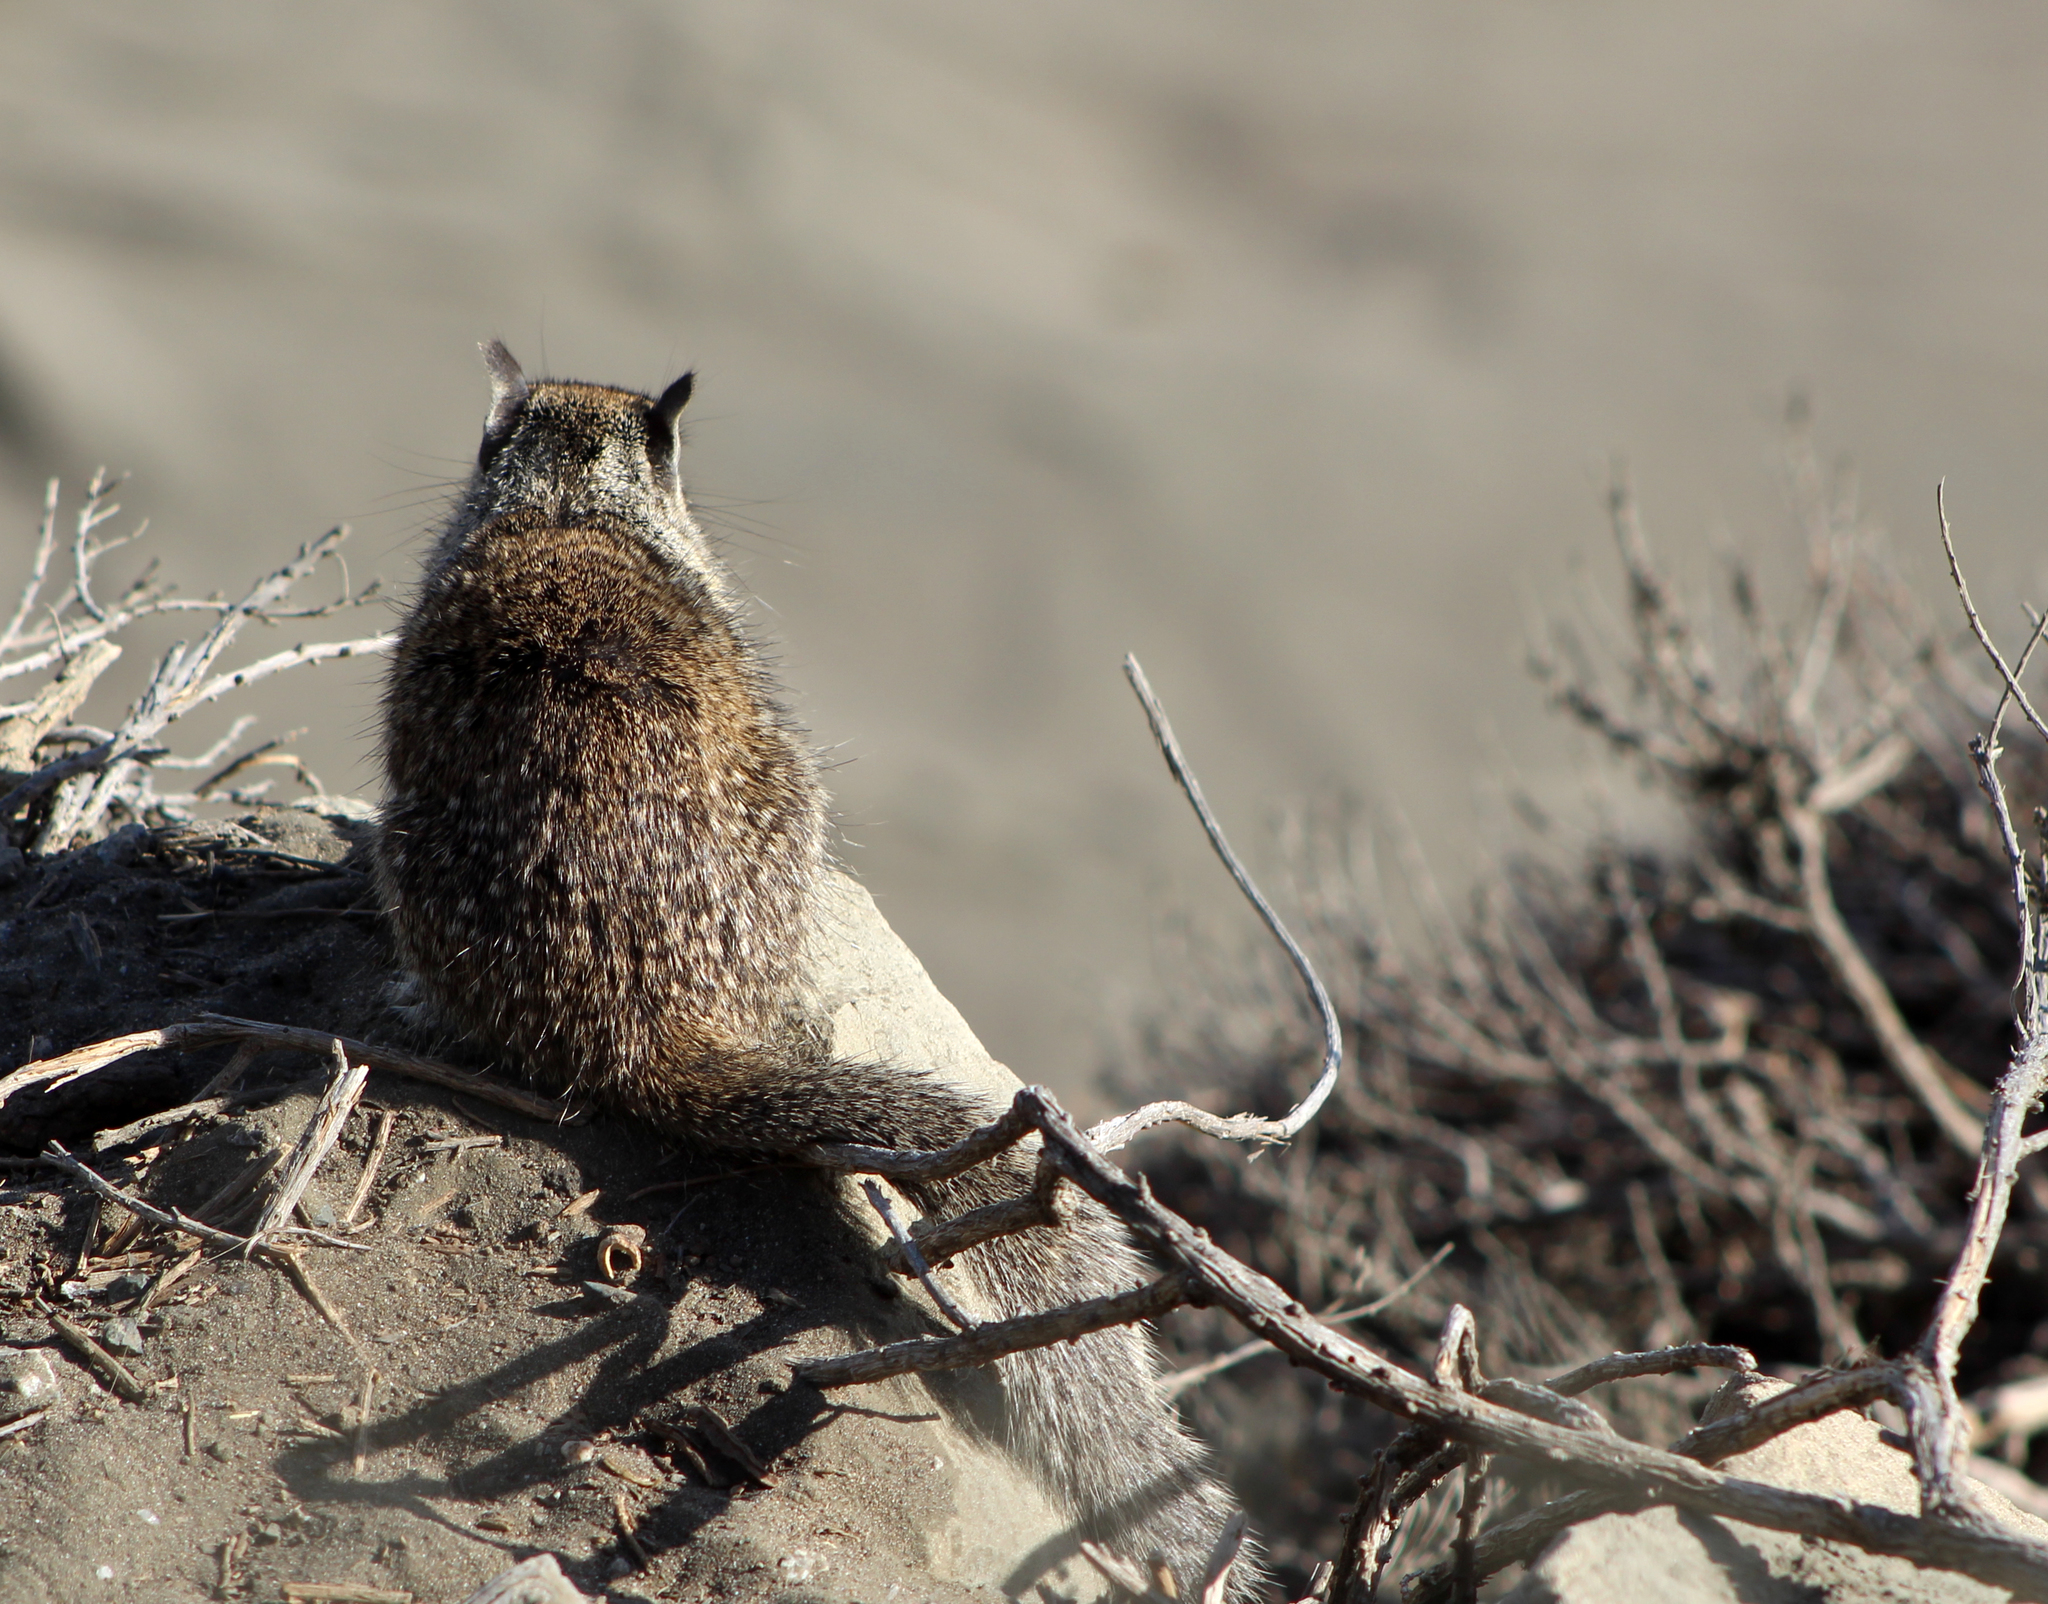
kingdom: Animalia
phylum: Chordata
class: Mammalia
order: Rodentia
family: Sciuridae
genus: Otospermophilus
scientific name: Otospermophilus beecheyi
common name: California ground squirrel
